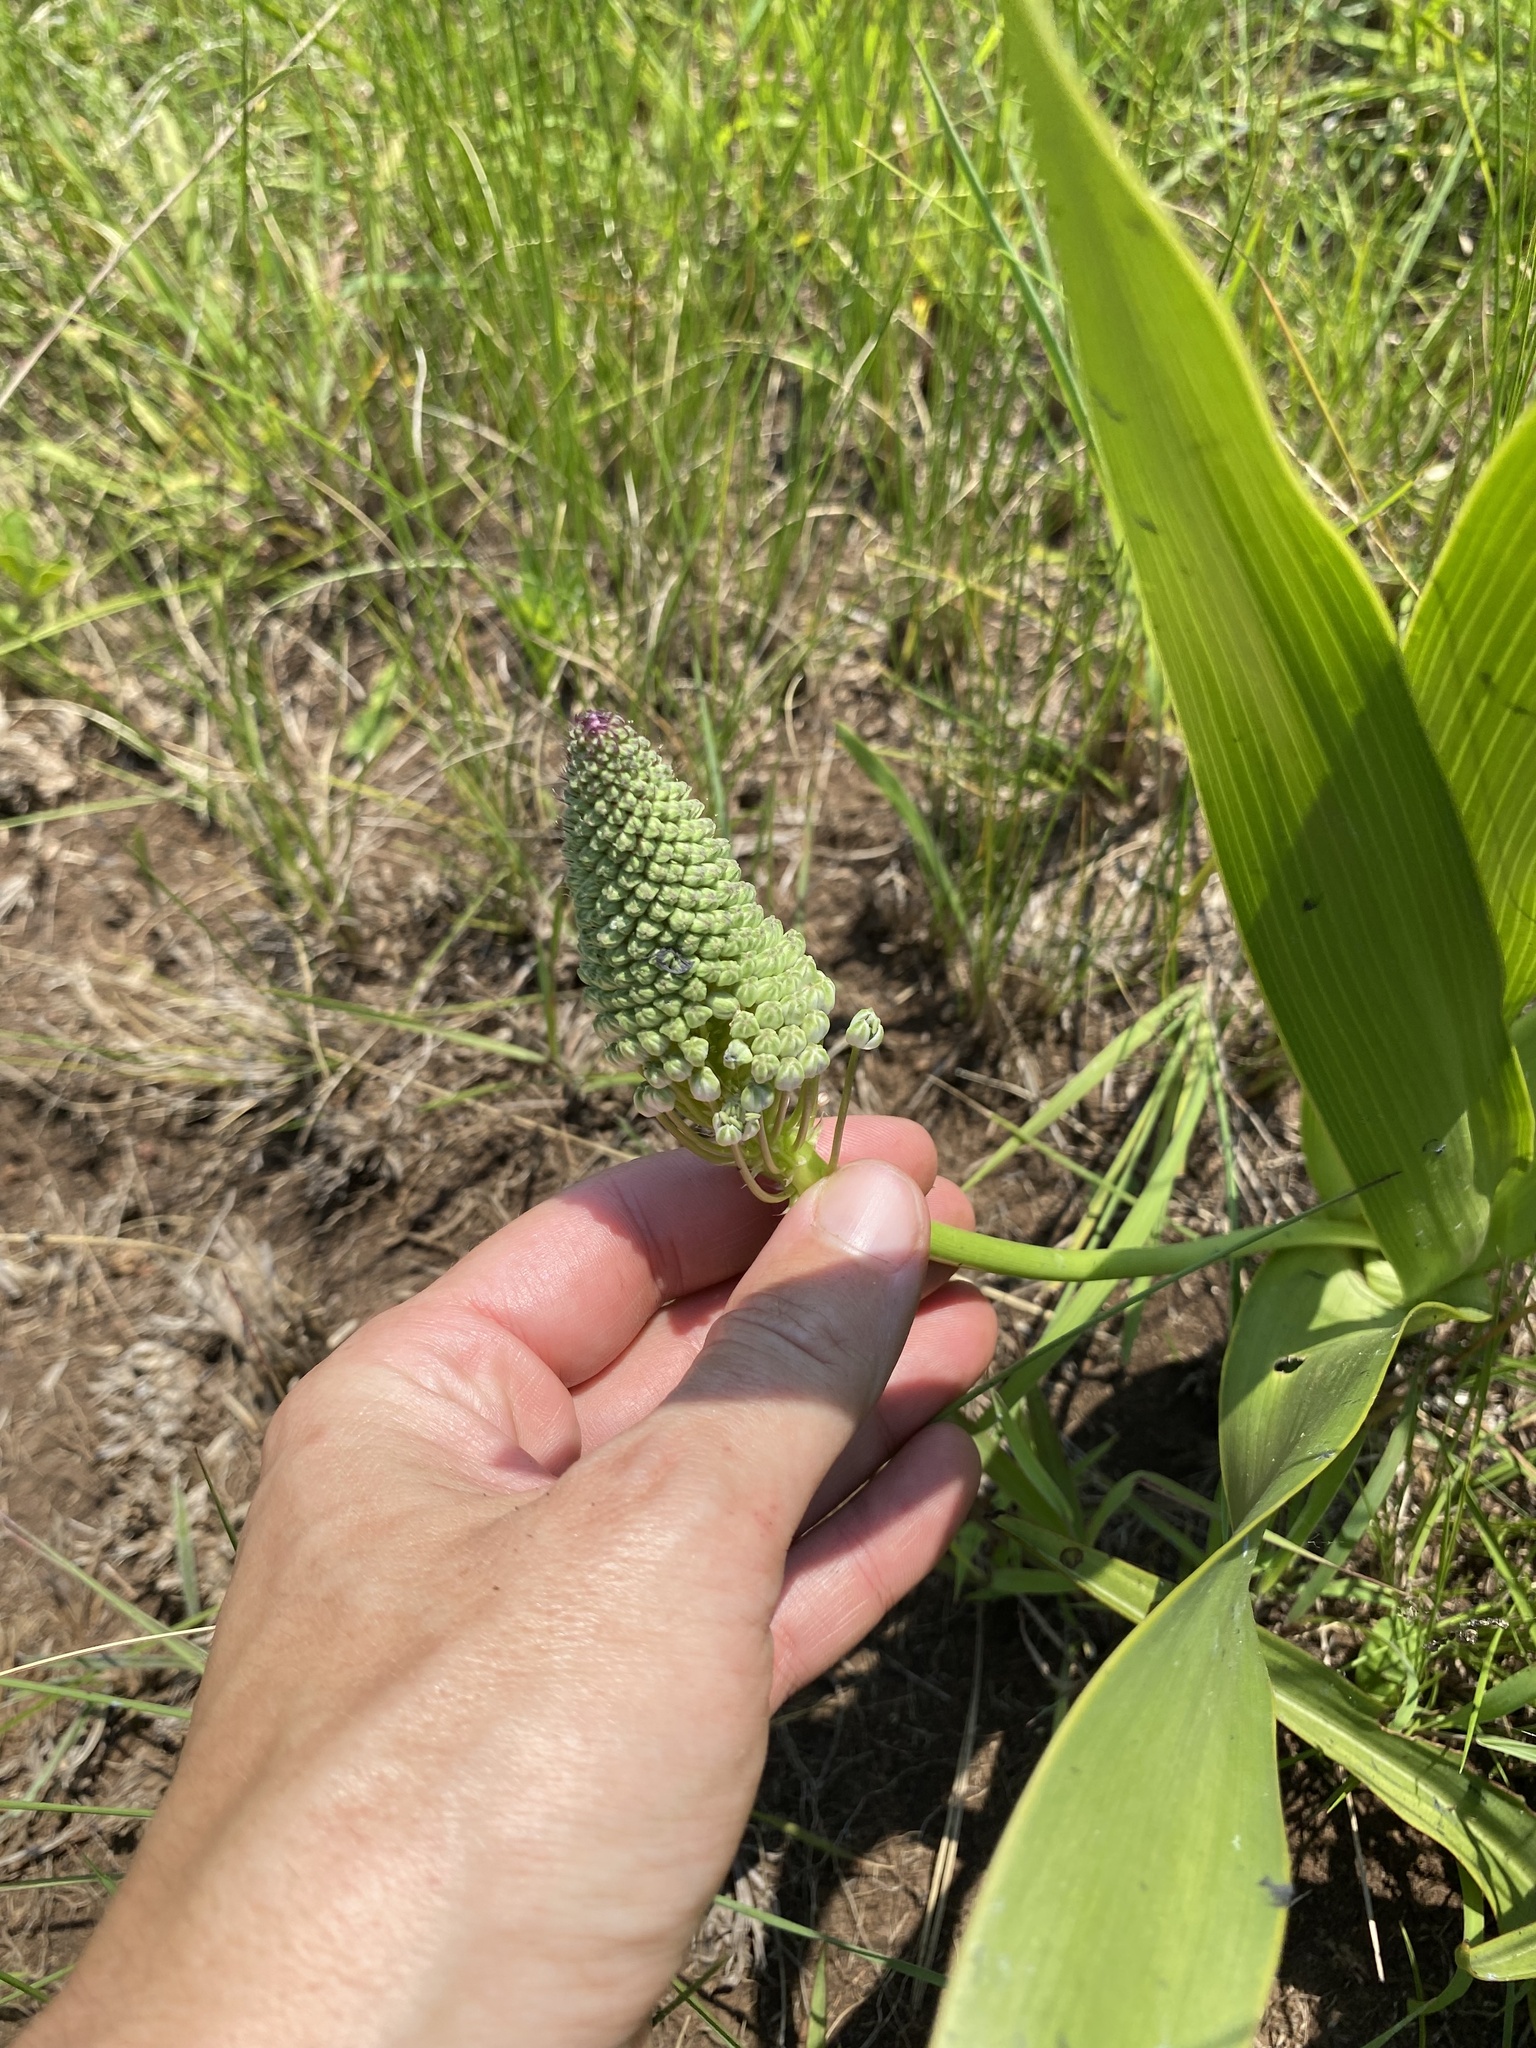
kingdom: Plantae
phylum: Tracheophyta
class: Liliopsida
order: Asparagales
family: Asparagaceae
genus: Schizocarphus
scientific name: Schizocarphus nervosus
